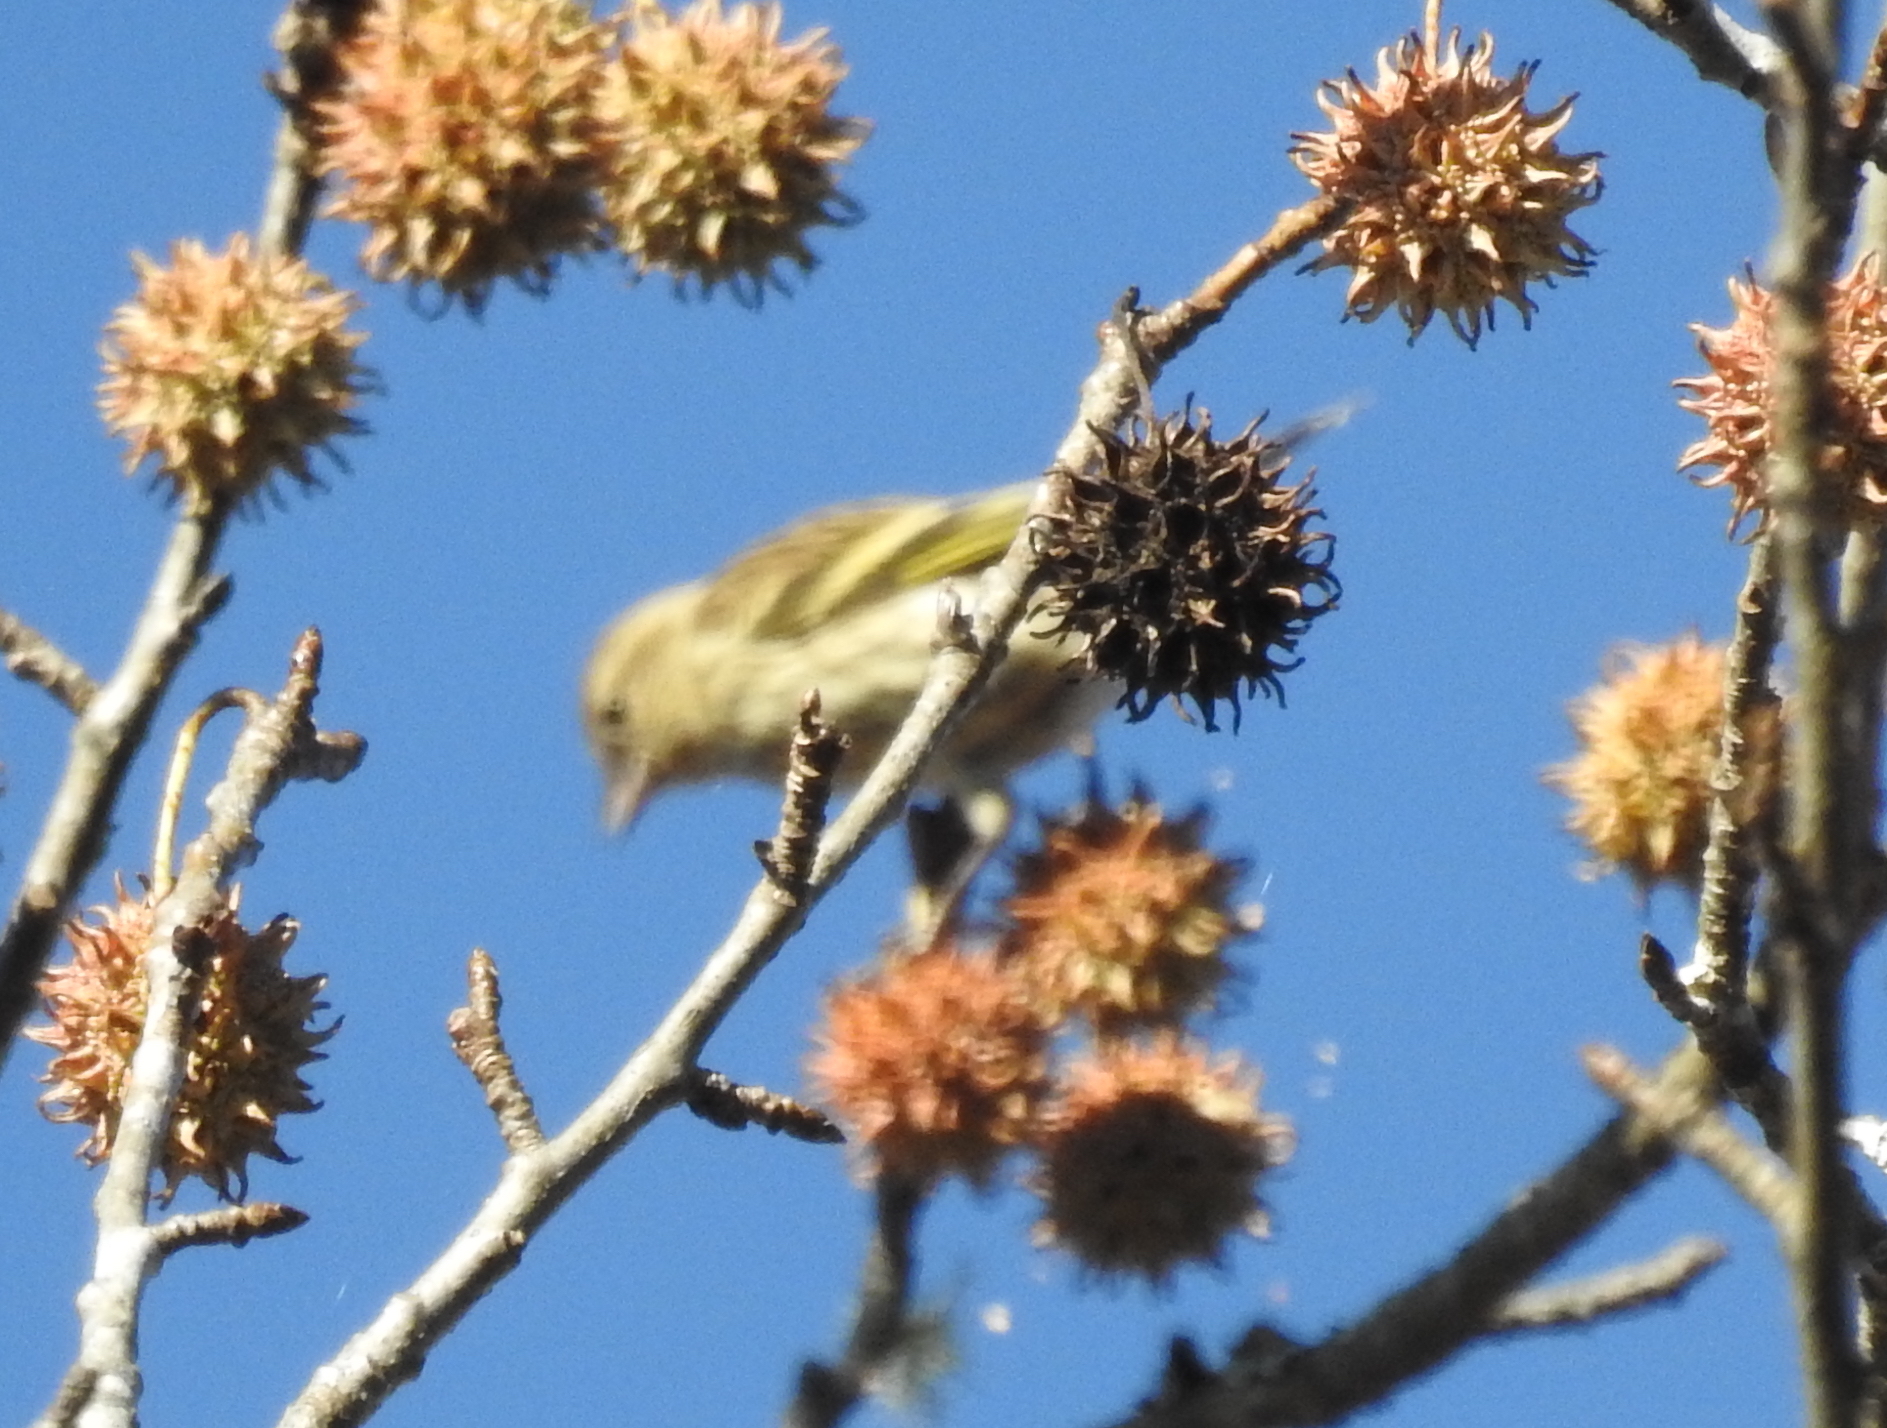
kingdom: Animalia
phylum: Chordata
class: Aves
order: Passeriformes
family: Fringillidae
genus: Spinus
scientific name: Spinus pinus
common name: Pine siskin
